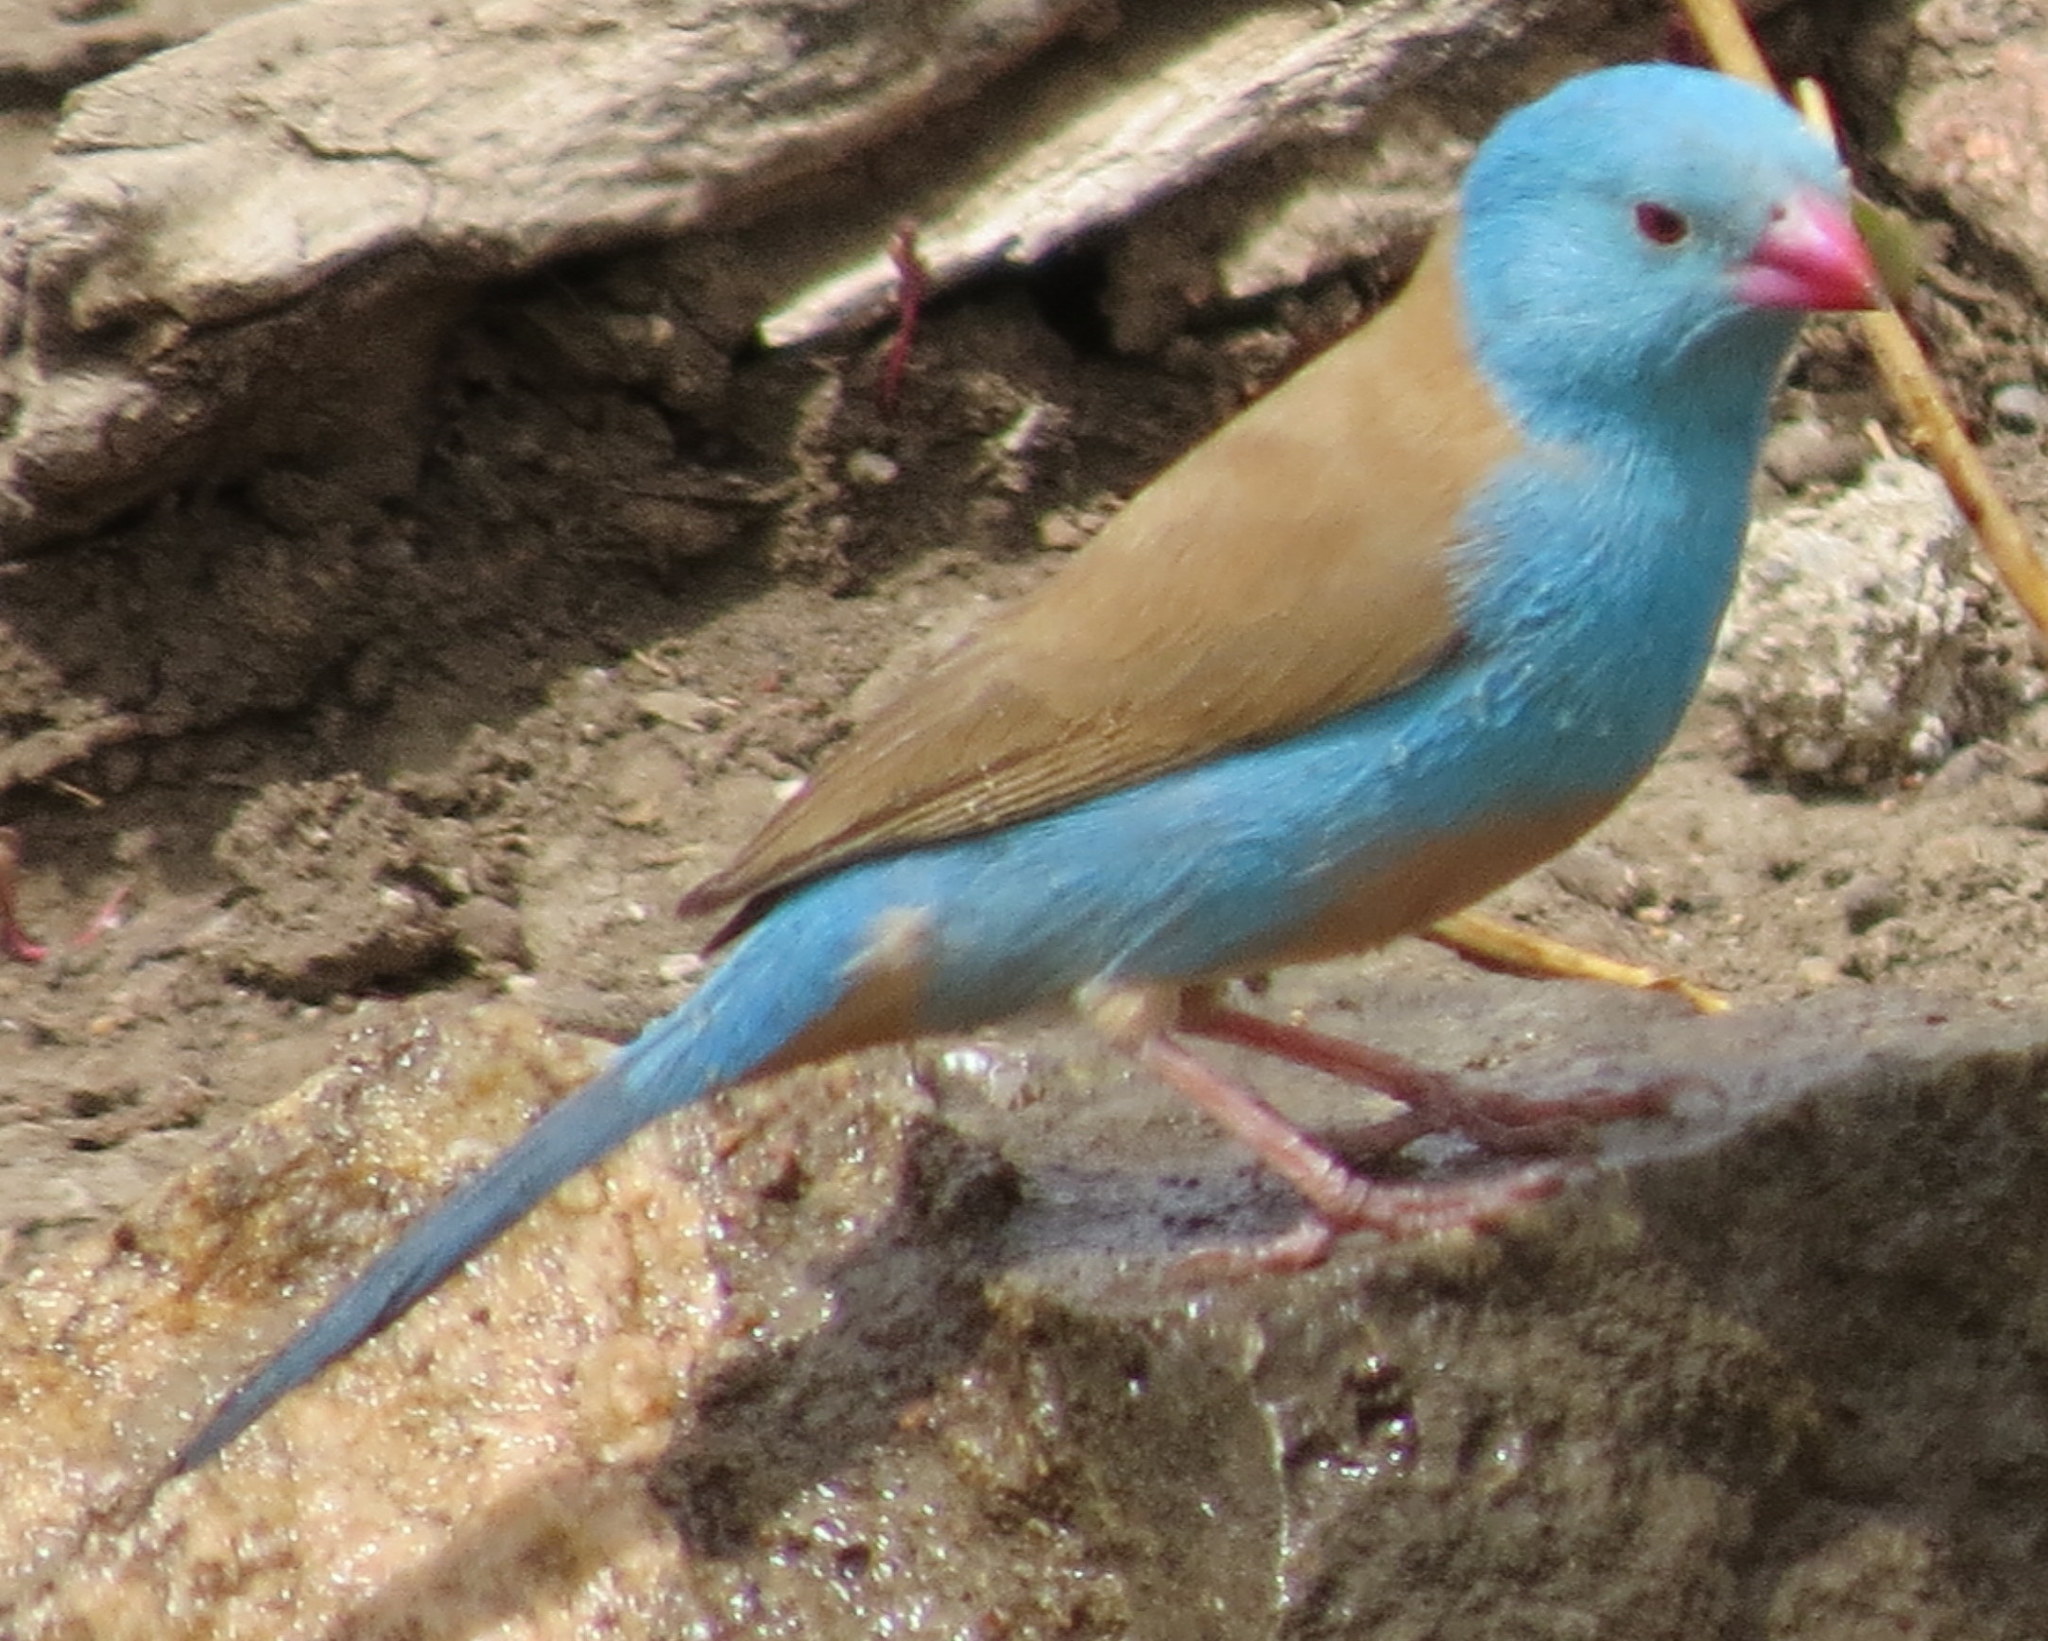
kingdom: Animalia
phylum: Chordata
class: Aves
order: Passeriformes
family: Estrildidae
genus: Uraeginthus
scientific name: Uraeginthus cyanocephalus
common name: Blue-capped cordon-bleu
